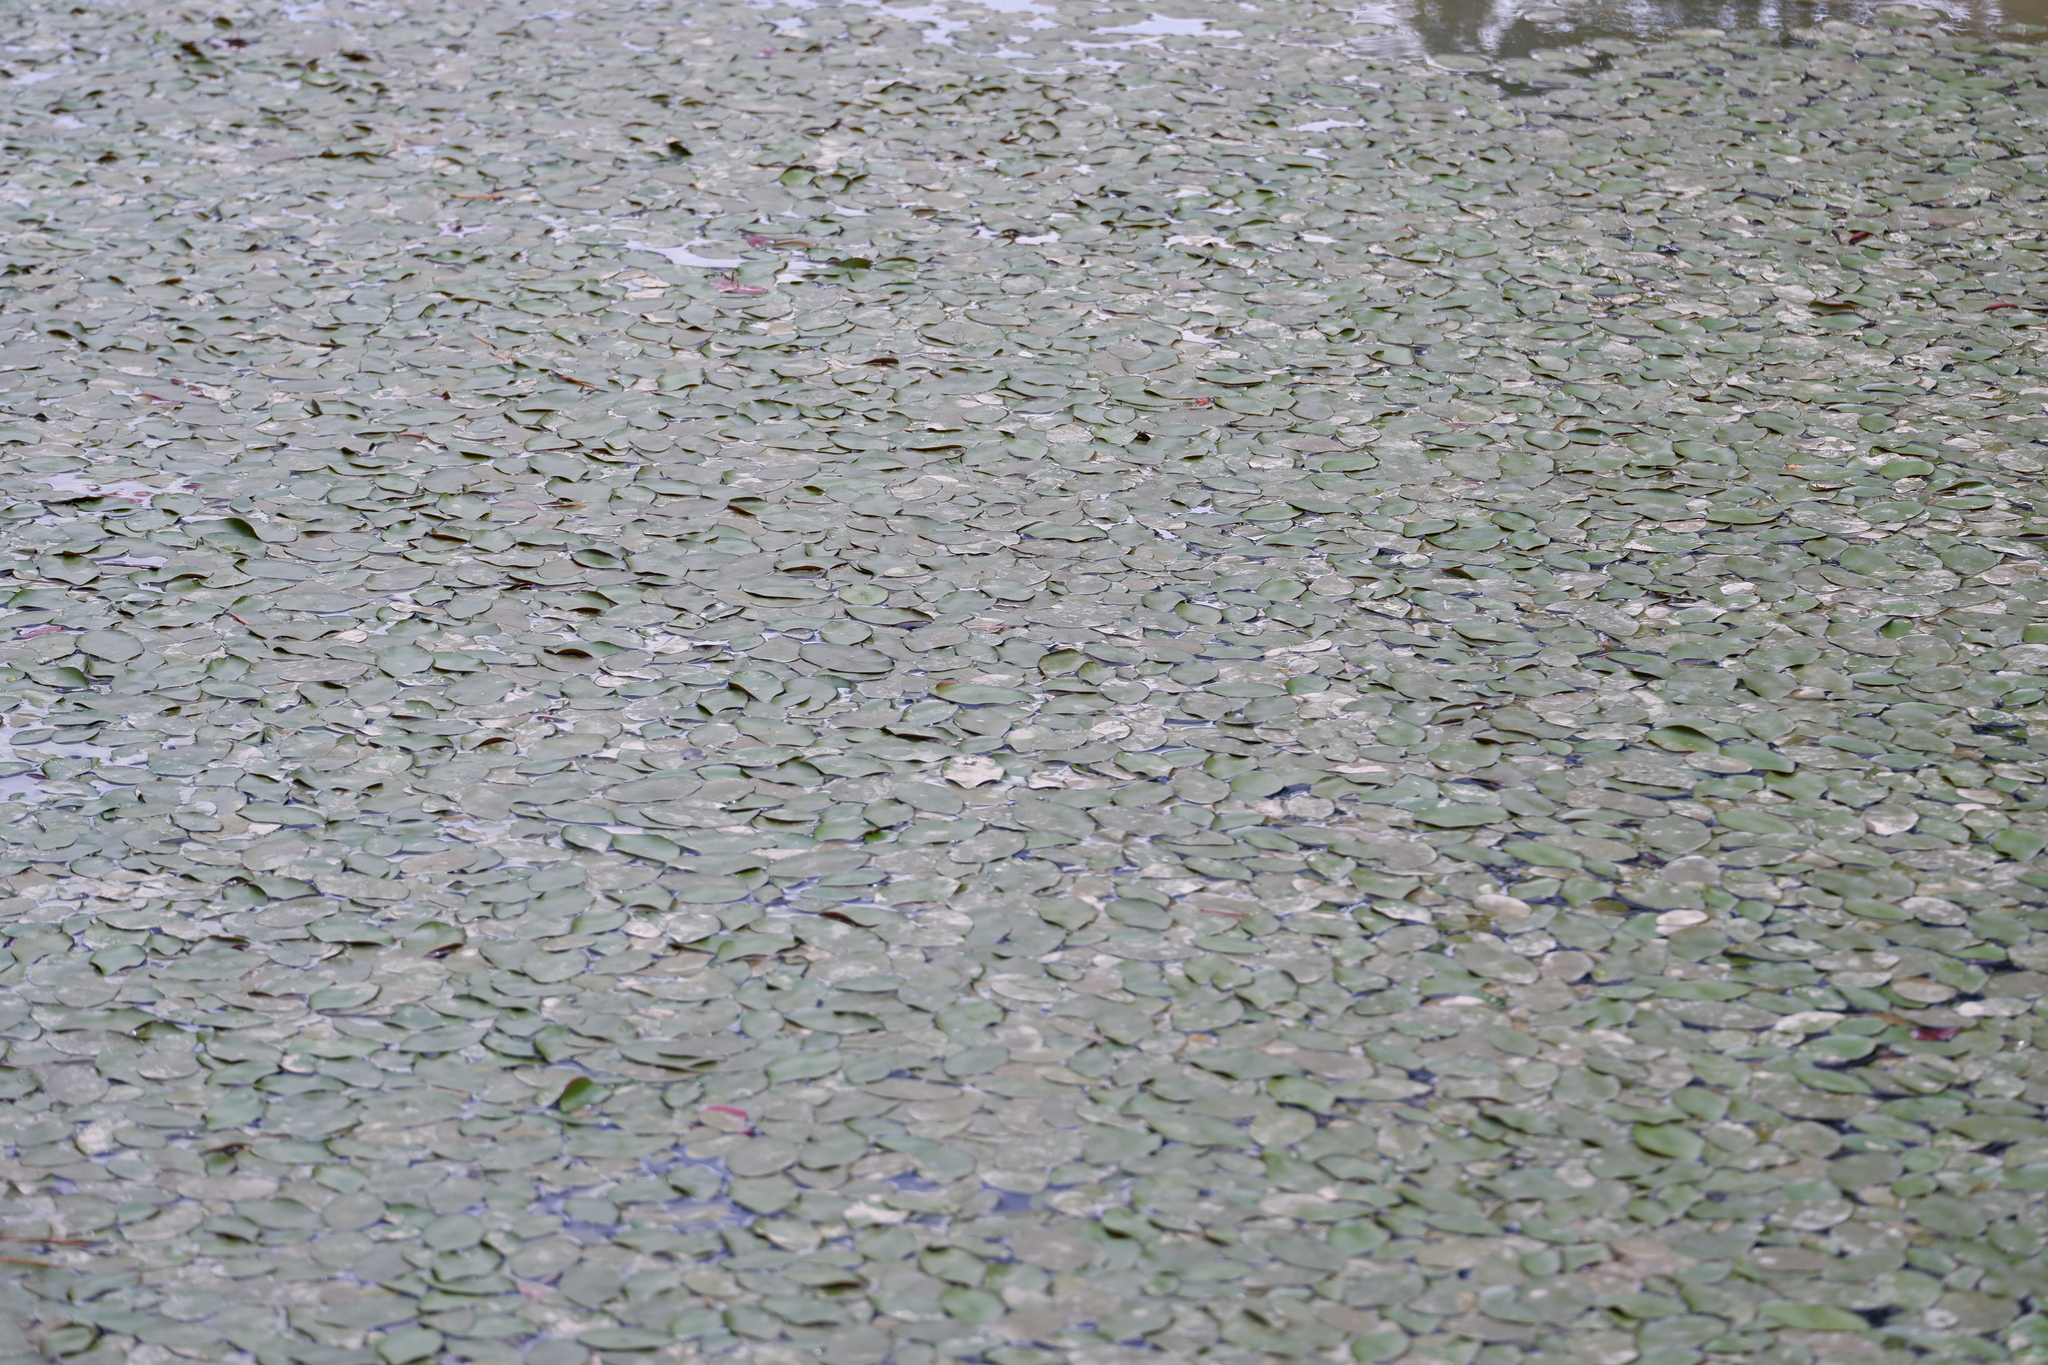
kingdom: Plantae
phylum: Tracheophyta
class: Magnoliopsida
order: Nymphaeales
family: Cabombaceae
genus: Brasenia
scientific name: Brasenia schreberi
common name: Water-shield
